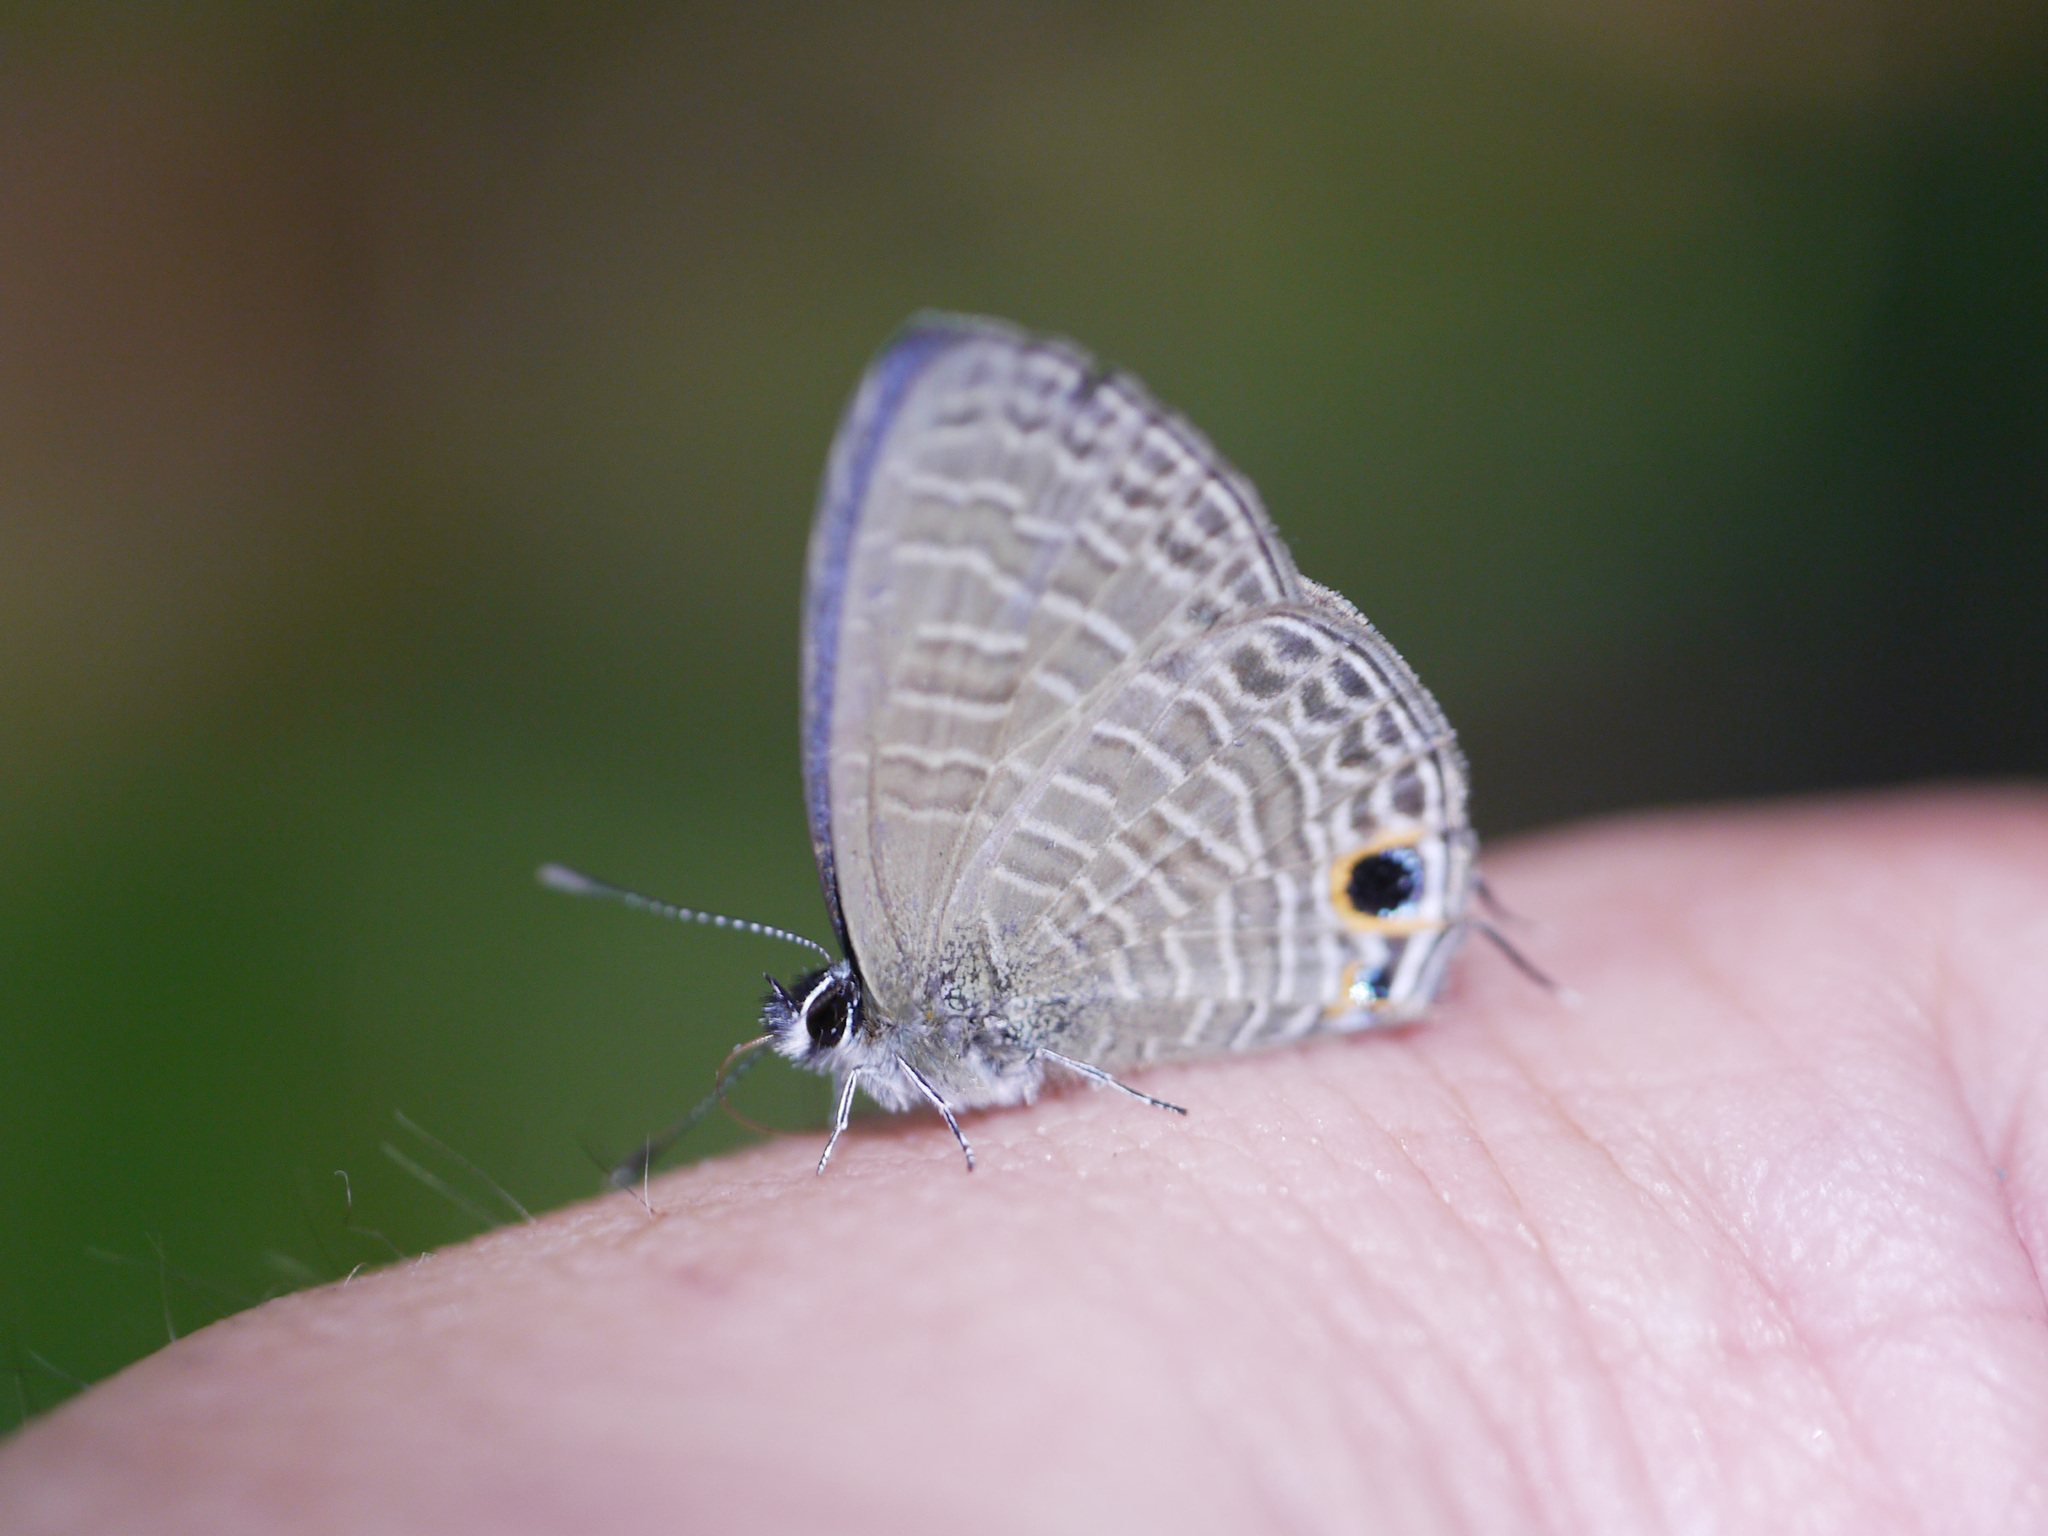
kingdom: Animalia
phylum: Arthropoda
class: Insecta
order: Lepidoptera
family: Lycaenidae
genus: Nacaduba
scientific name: Nacaduba berenice
